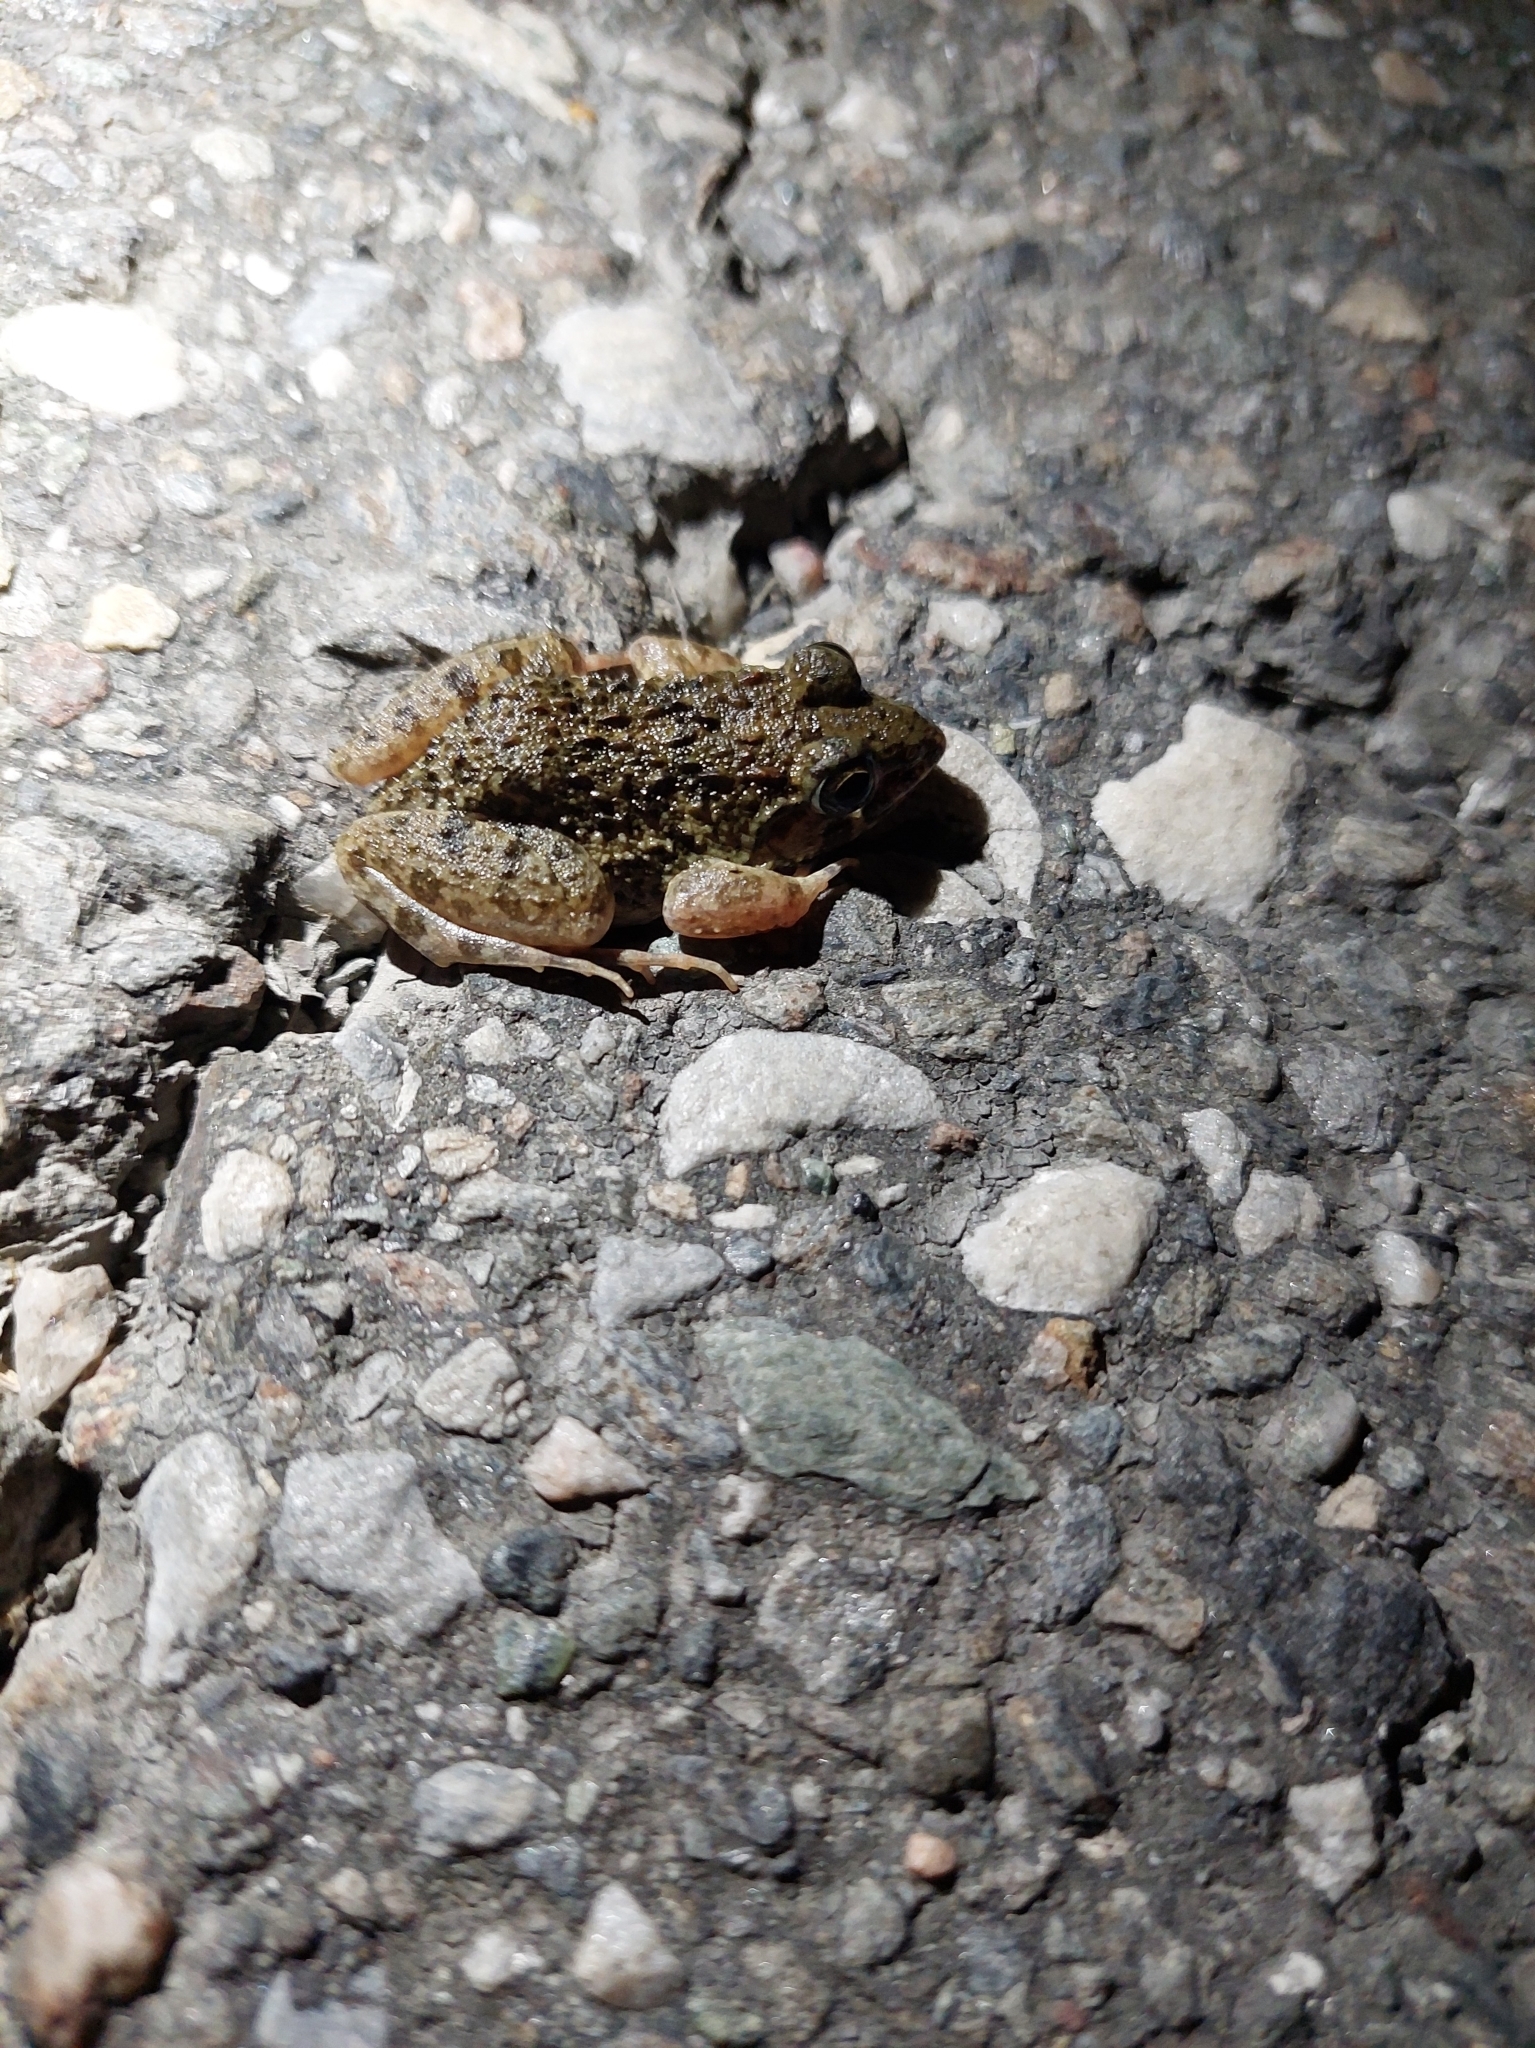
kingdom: Animalia
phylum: Chordata
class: Amphibia
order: Anura
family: Dicroglossidae
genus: Fejervarya
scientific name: Fejervarya limnocharis
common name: Asian grass frog/common pond frog/field frog/grass frog/indian rice frog
